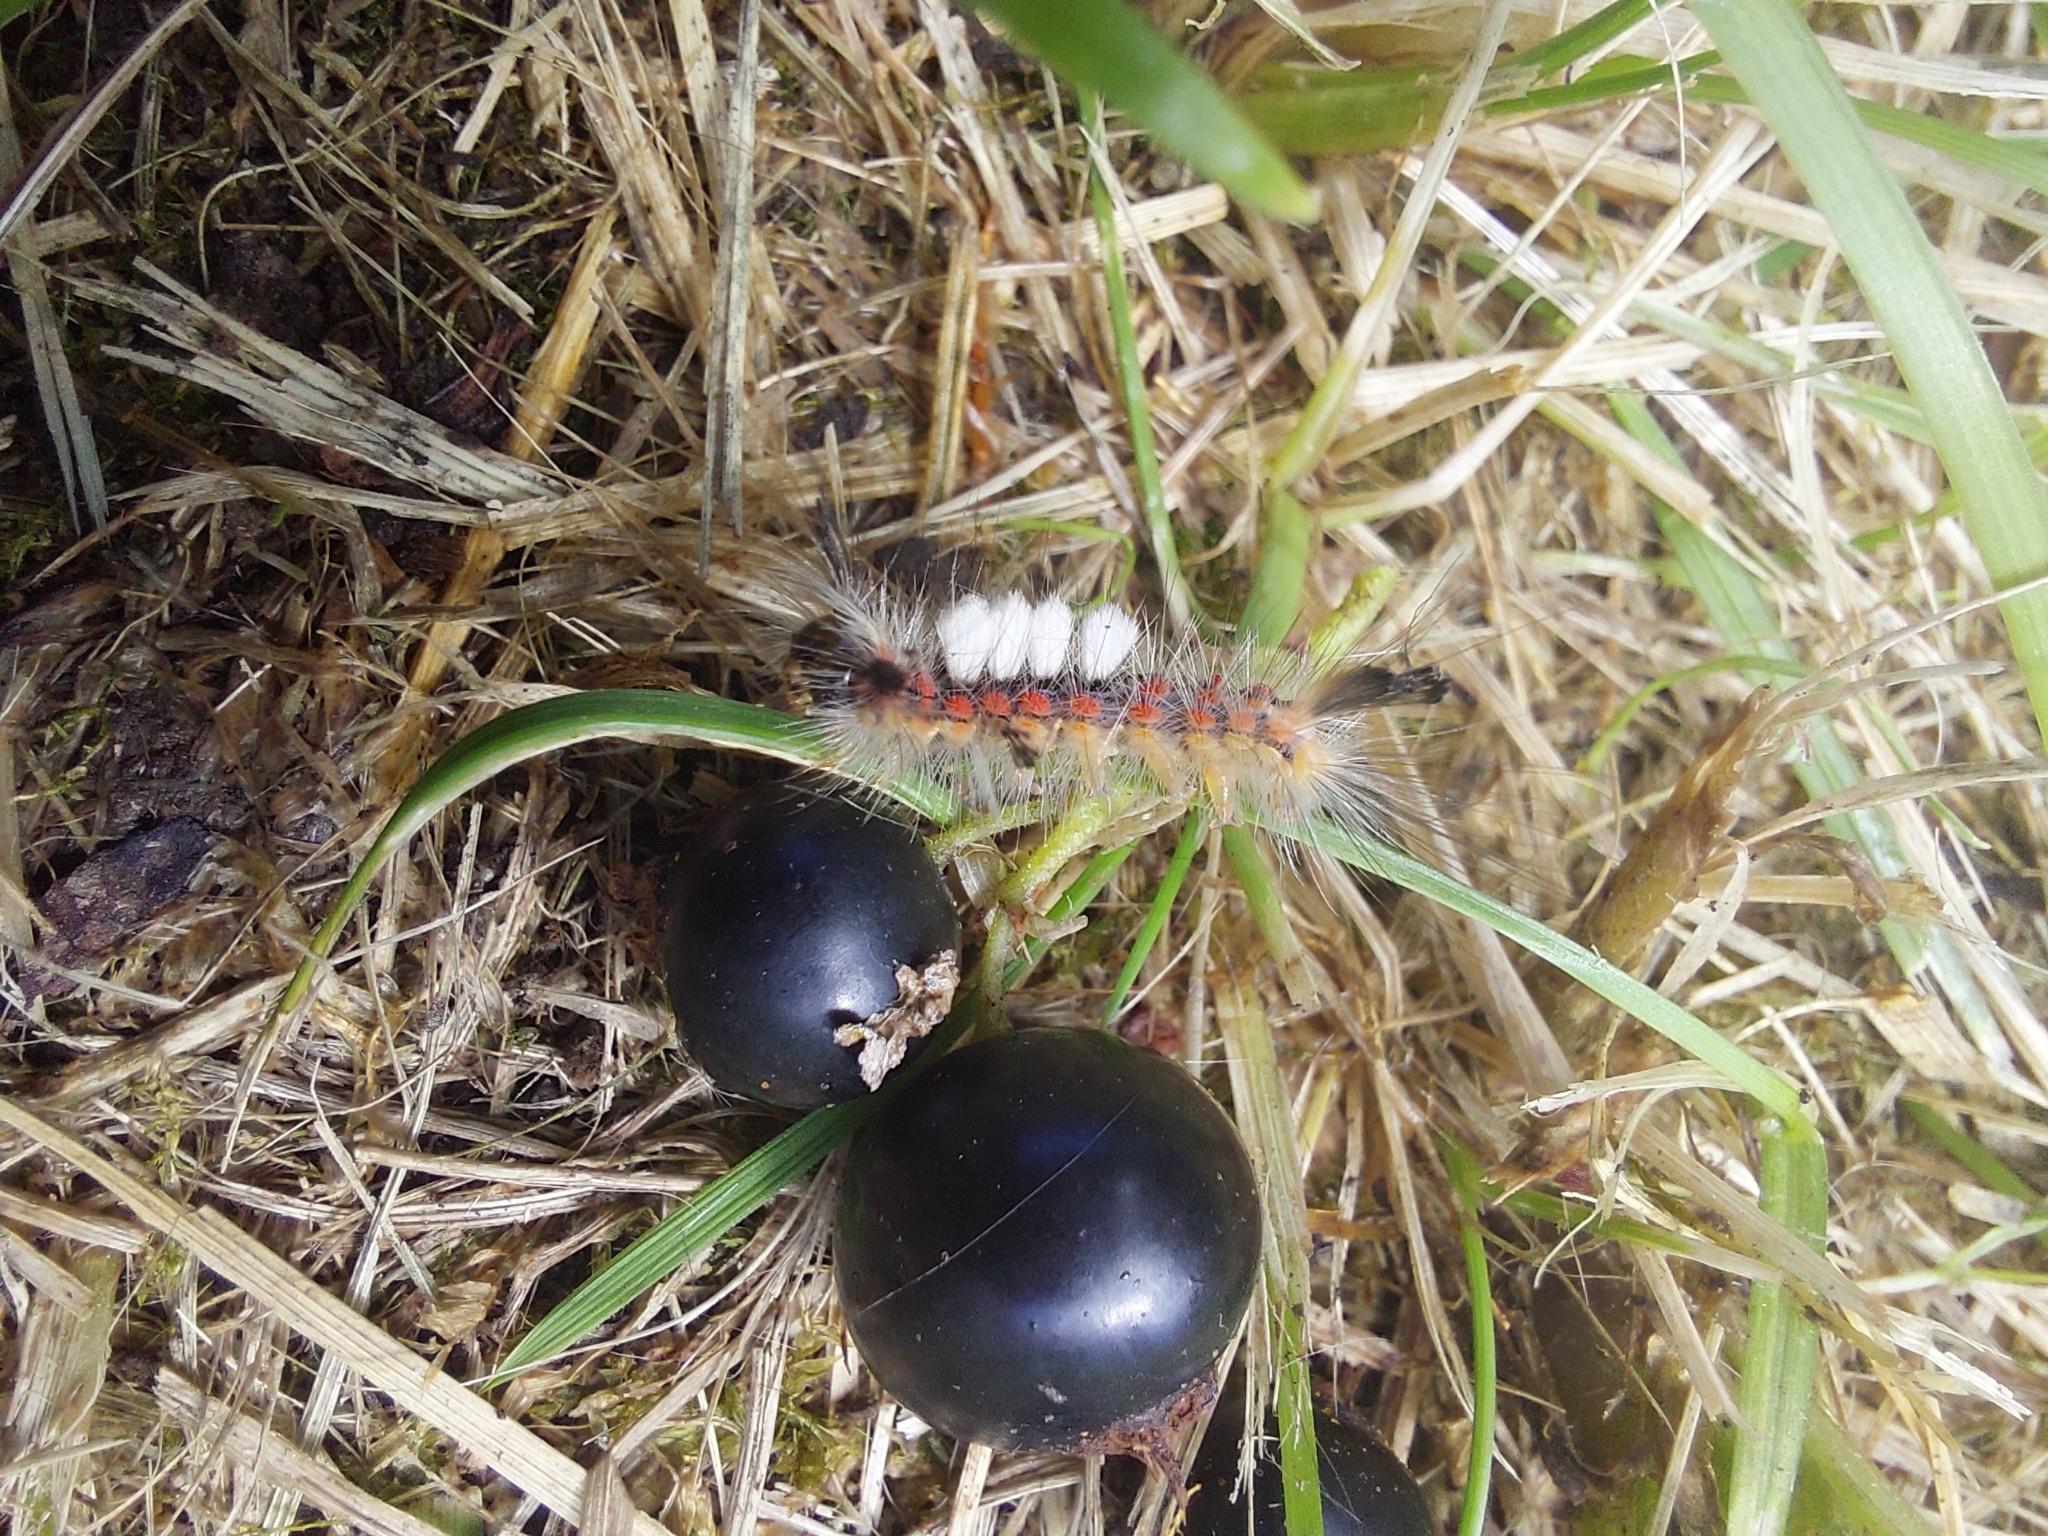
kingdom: Animalia
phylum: Arthropoda
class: Insecta
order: Lepidoptera
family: Erebidae
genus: Orgyia
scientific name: Orgyia antiqua
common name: Vapourer
